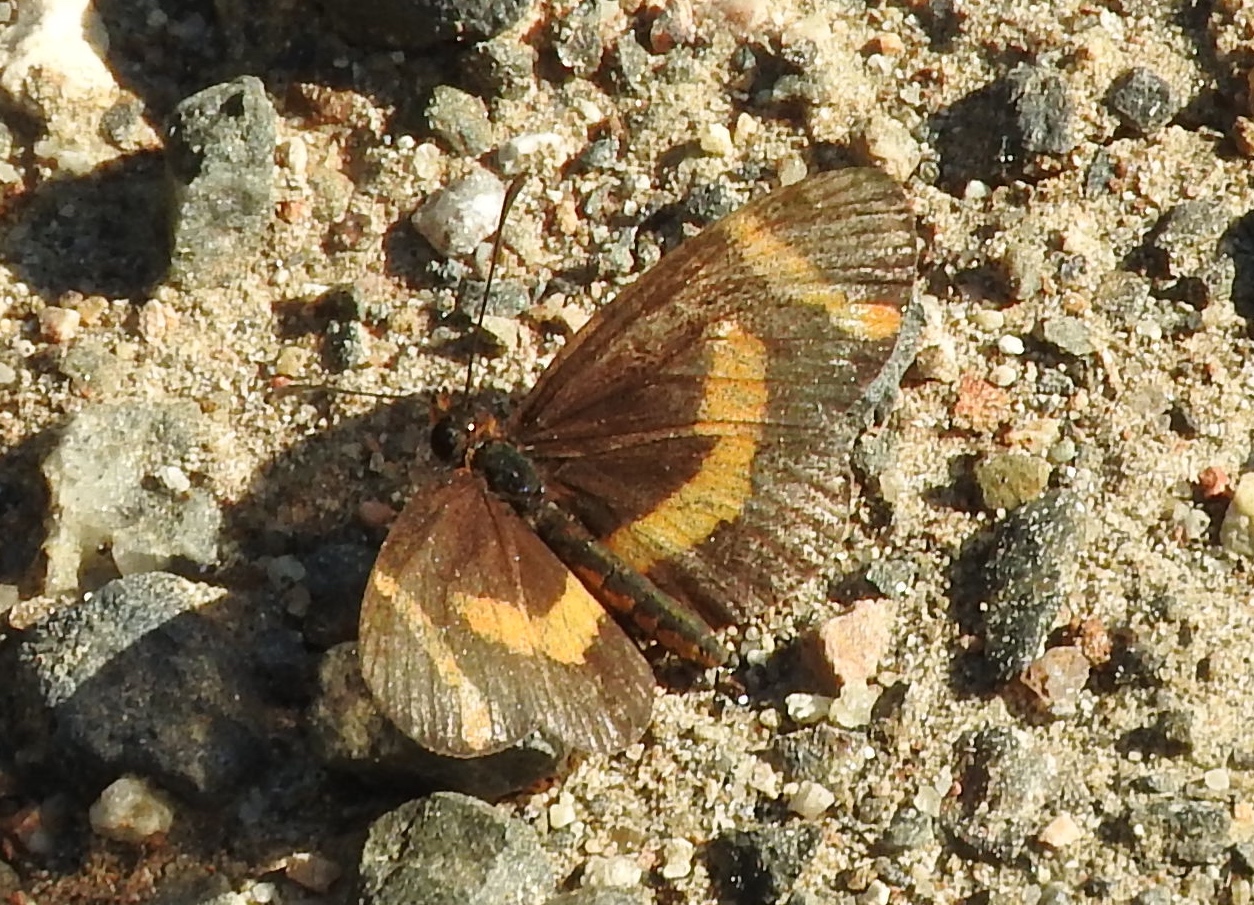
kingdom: Animalia
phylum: Arthropoda
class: Insecta
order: Lepidoptera
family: Nymphalidae
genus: Microtia
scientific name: Microtia elva
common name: Elf
